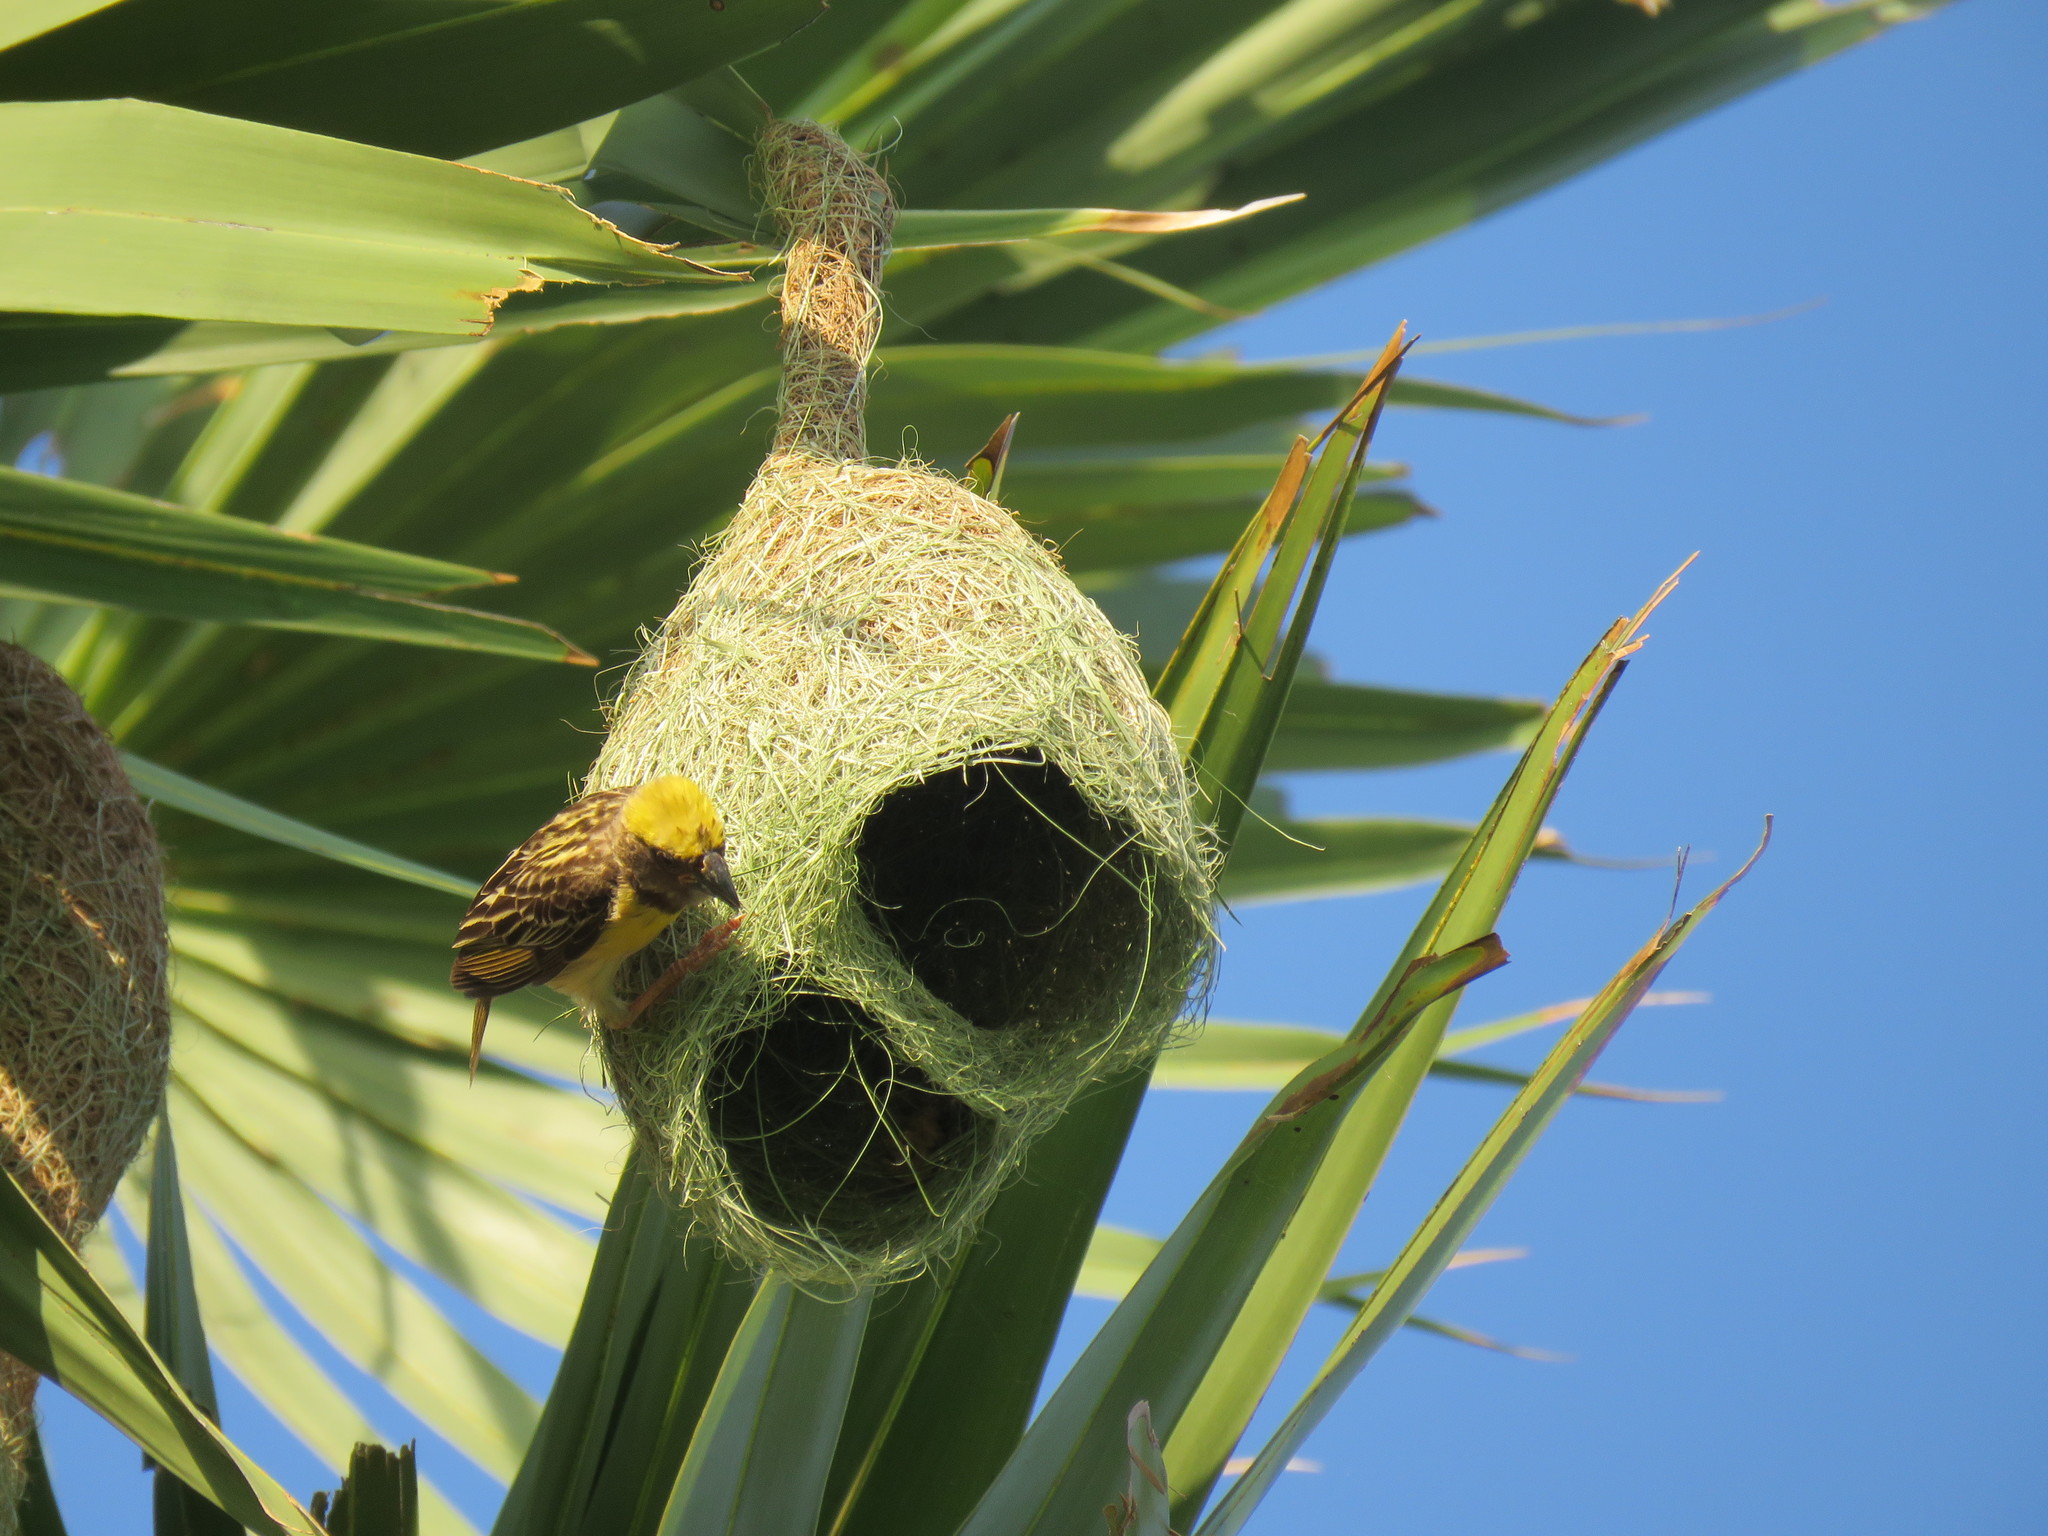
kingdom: Animalia
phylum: Chordata
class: Aves
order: Passeriformes
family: Ploceidae
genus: Ploceus
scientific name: Ploceus philippinus
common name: Baya weaver
